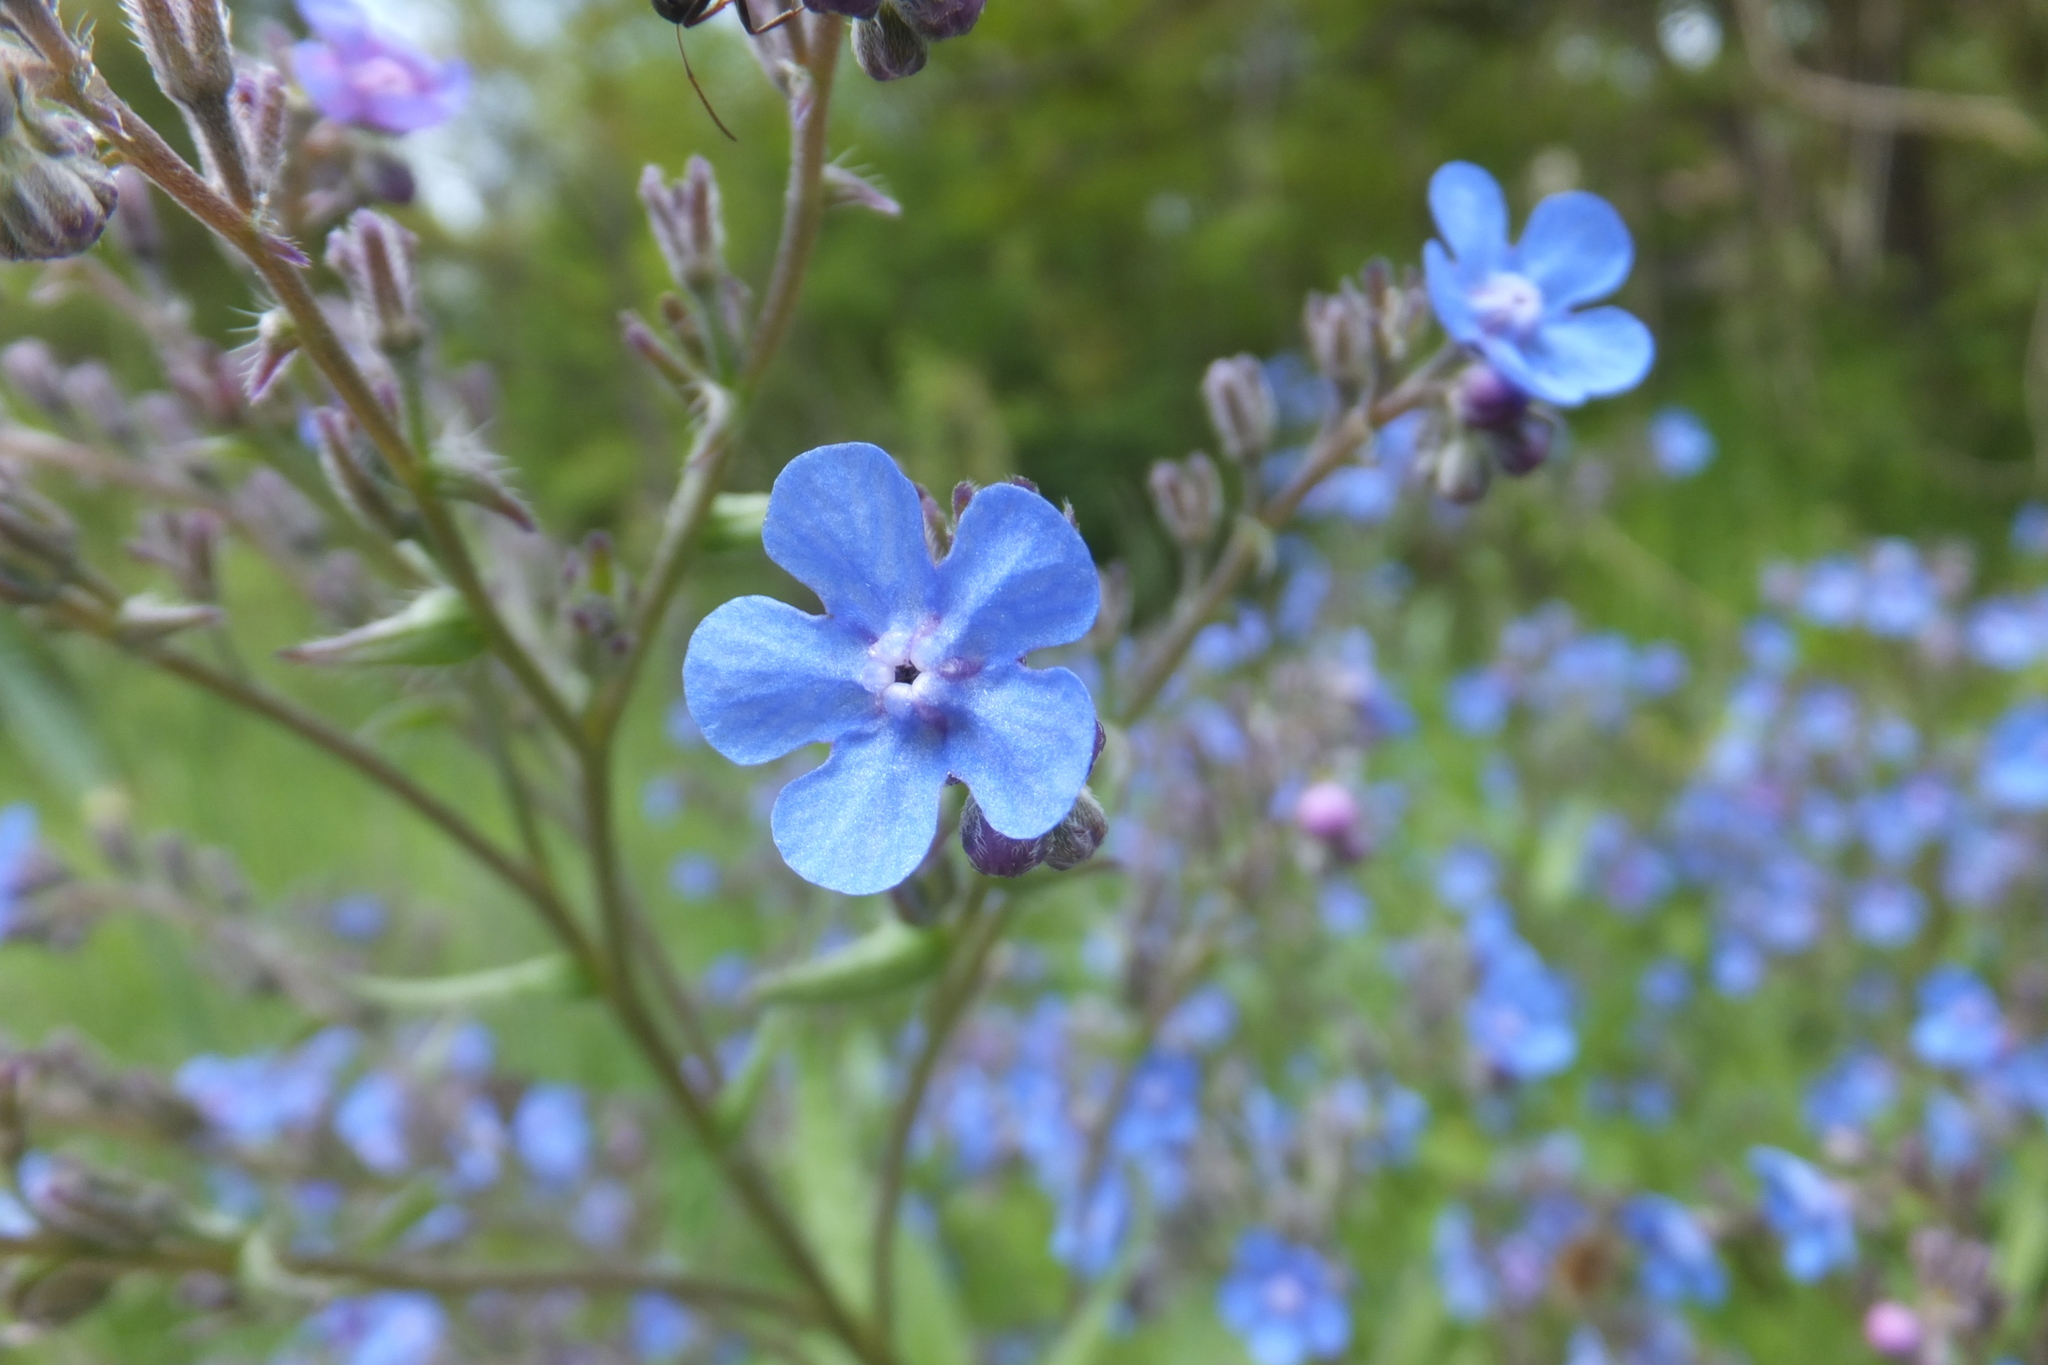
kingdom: Plantae
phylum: Tracheophyta
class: Magnoliopsida
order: Boraginales
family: Boraginaceae
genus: Cynoglottis
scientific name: Cynoglottis barrelieri
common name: False alkanet
